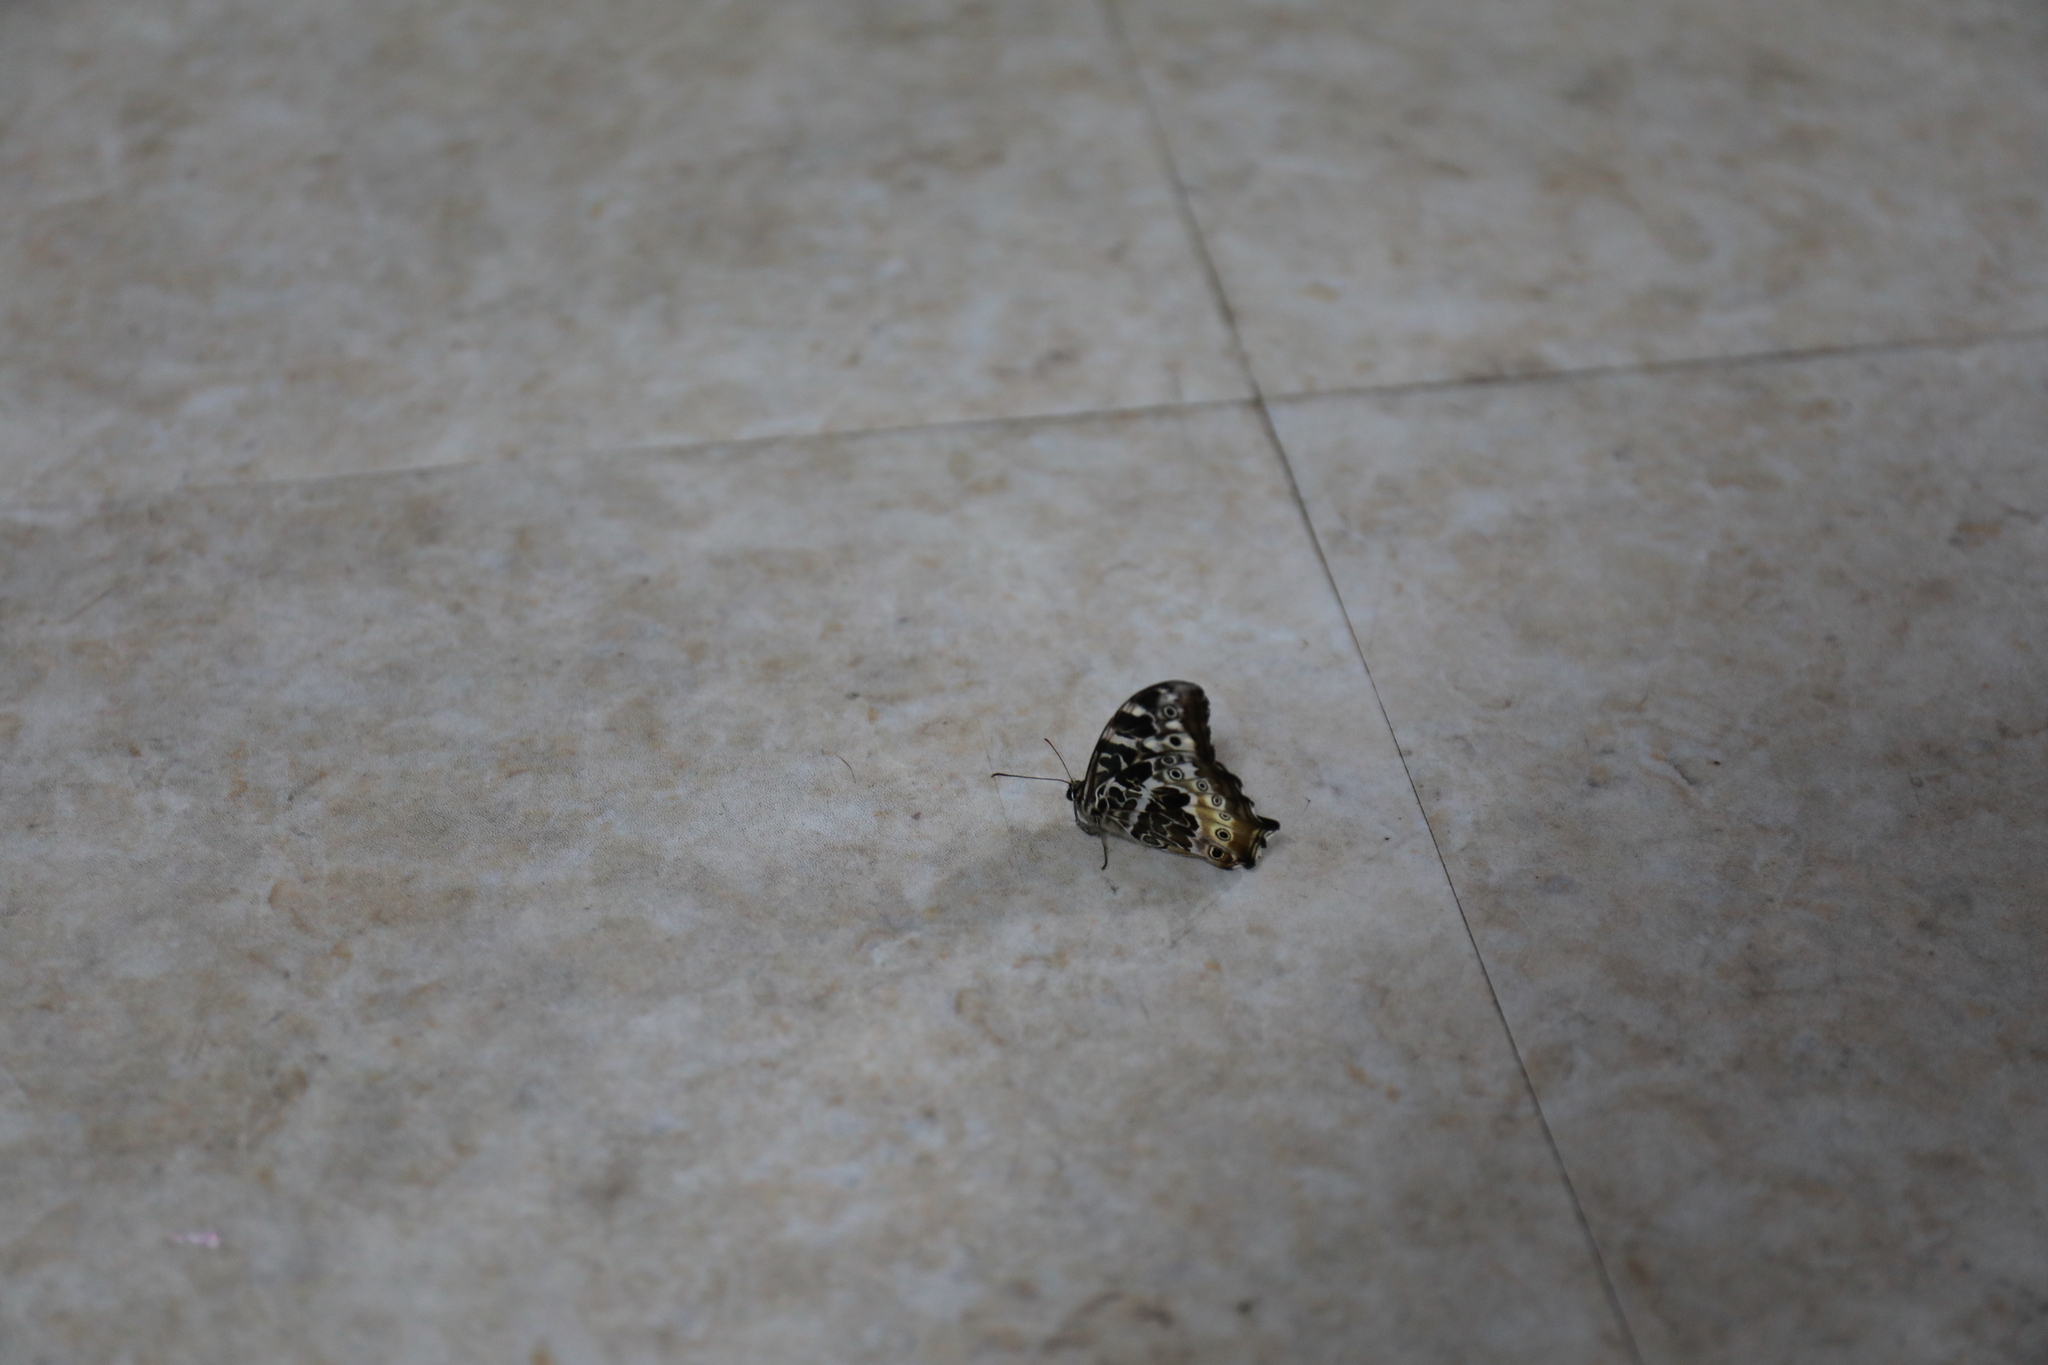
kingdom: Animalia
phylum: Arthropoda
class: Insecta
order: Lepidoptera
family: Nymphalidae
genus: Neope
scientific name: Neope armandii
